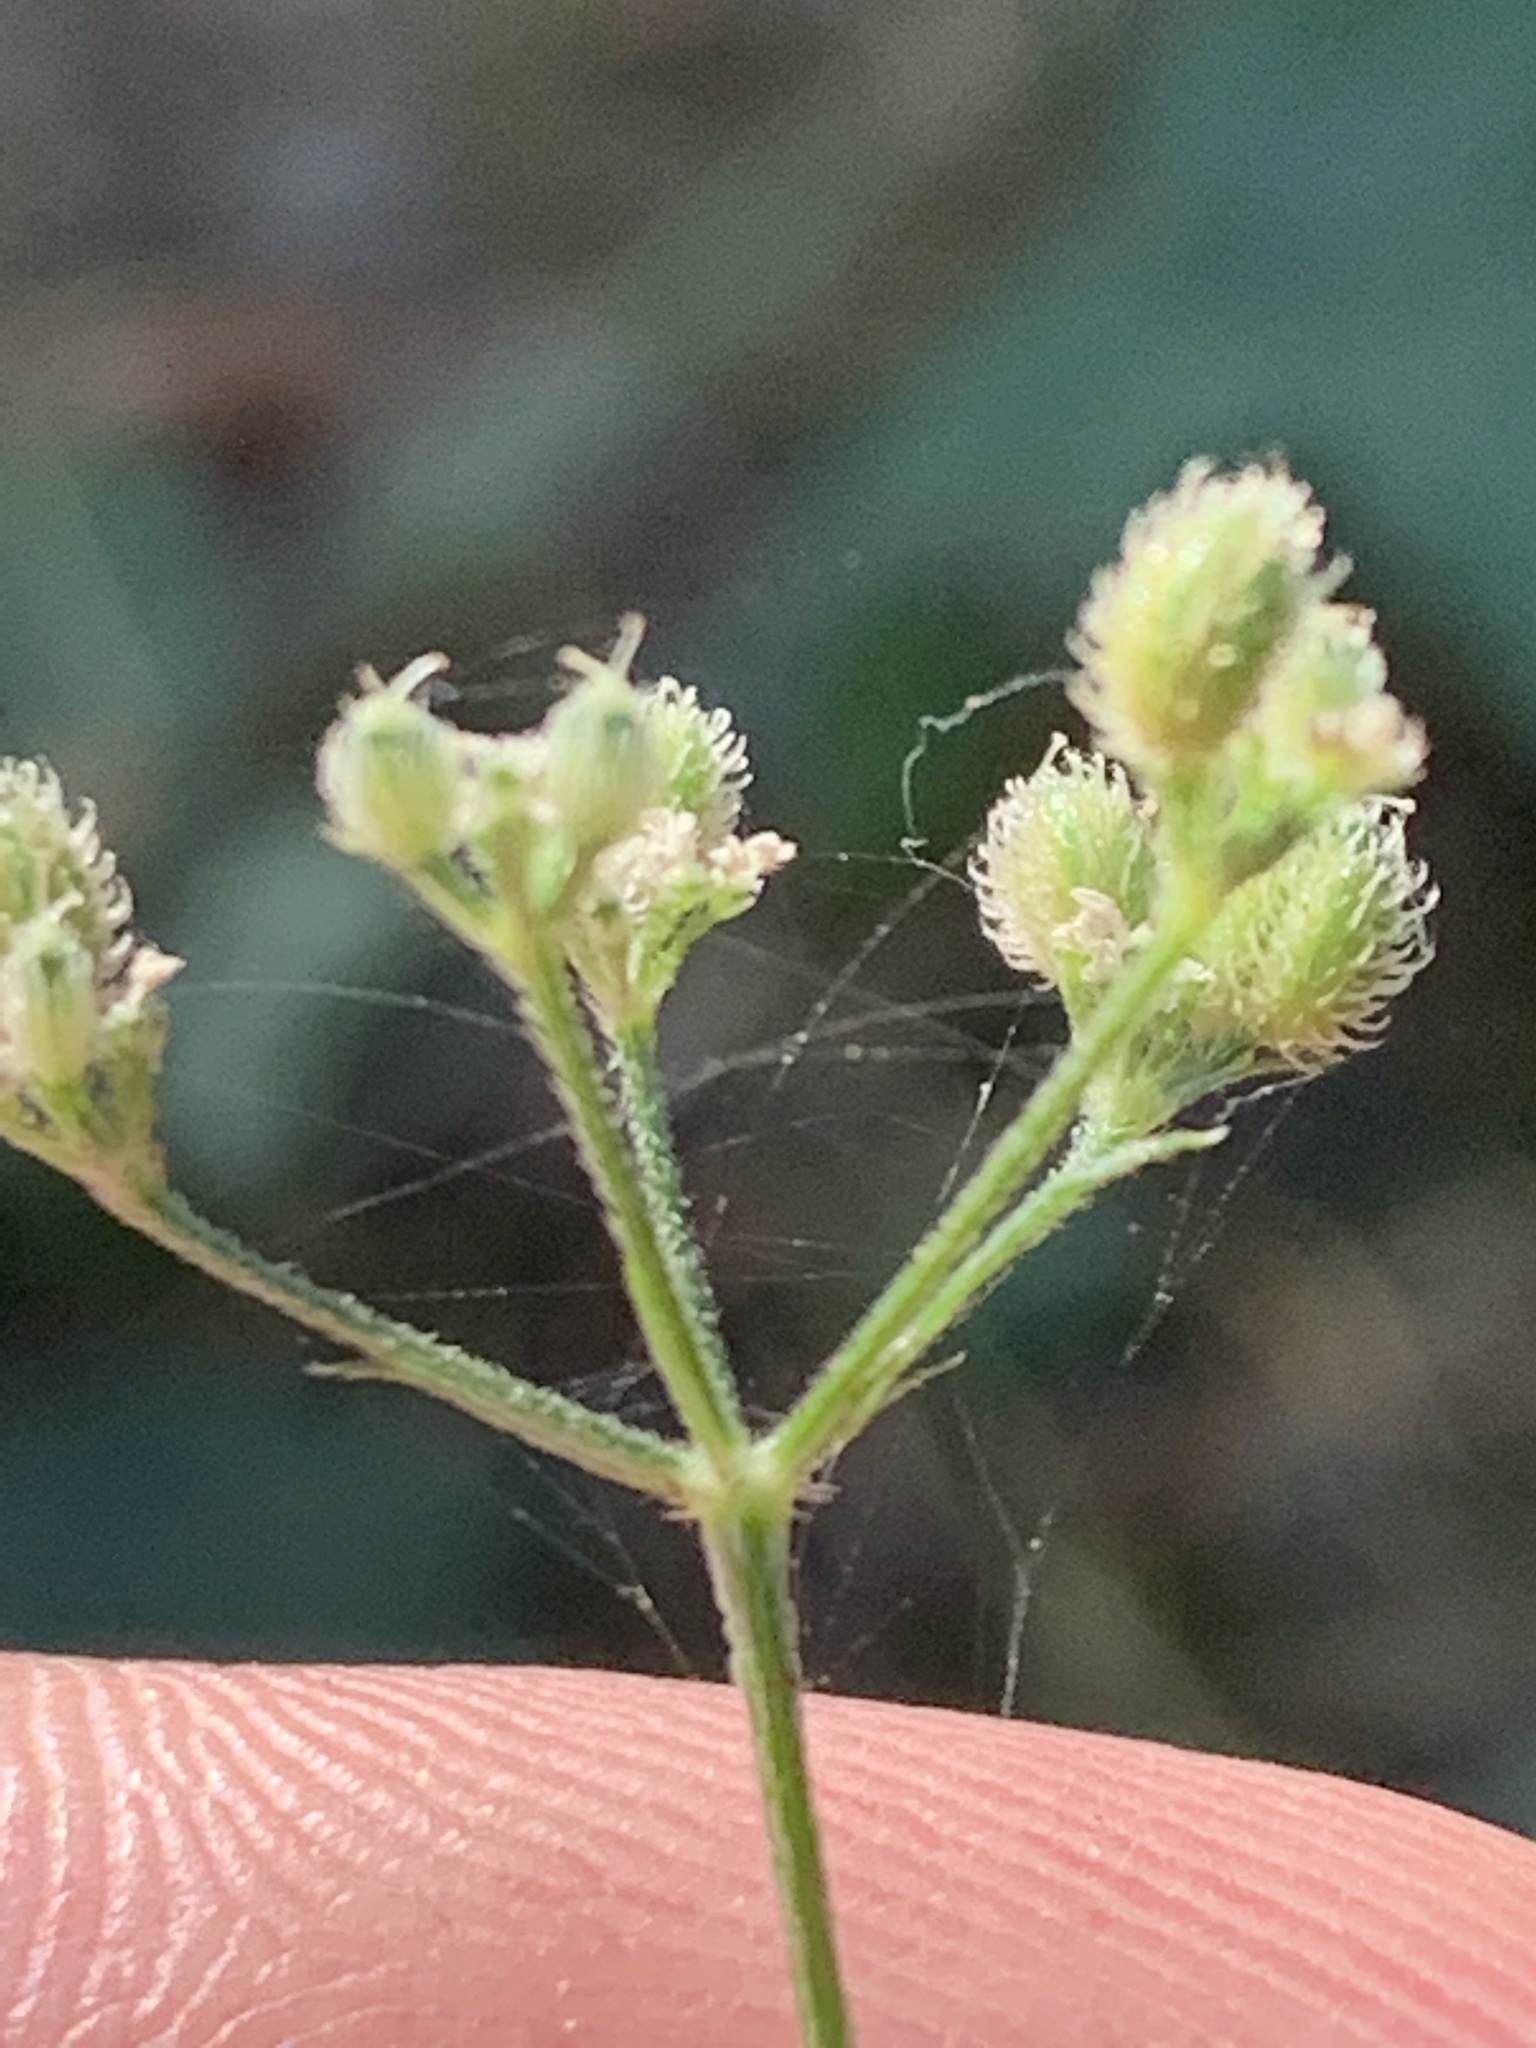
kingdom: Plantae
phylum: Tracheophyta
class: Magnoliopsida
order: Apiales
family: Apiaceae
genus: Torilis
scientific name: Torilis japonica
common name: Upright hedge-parsley
